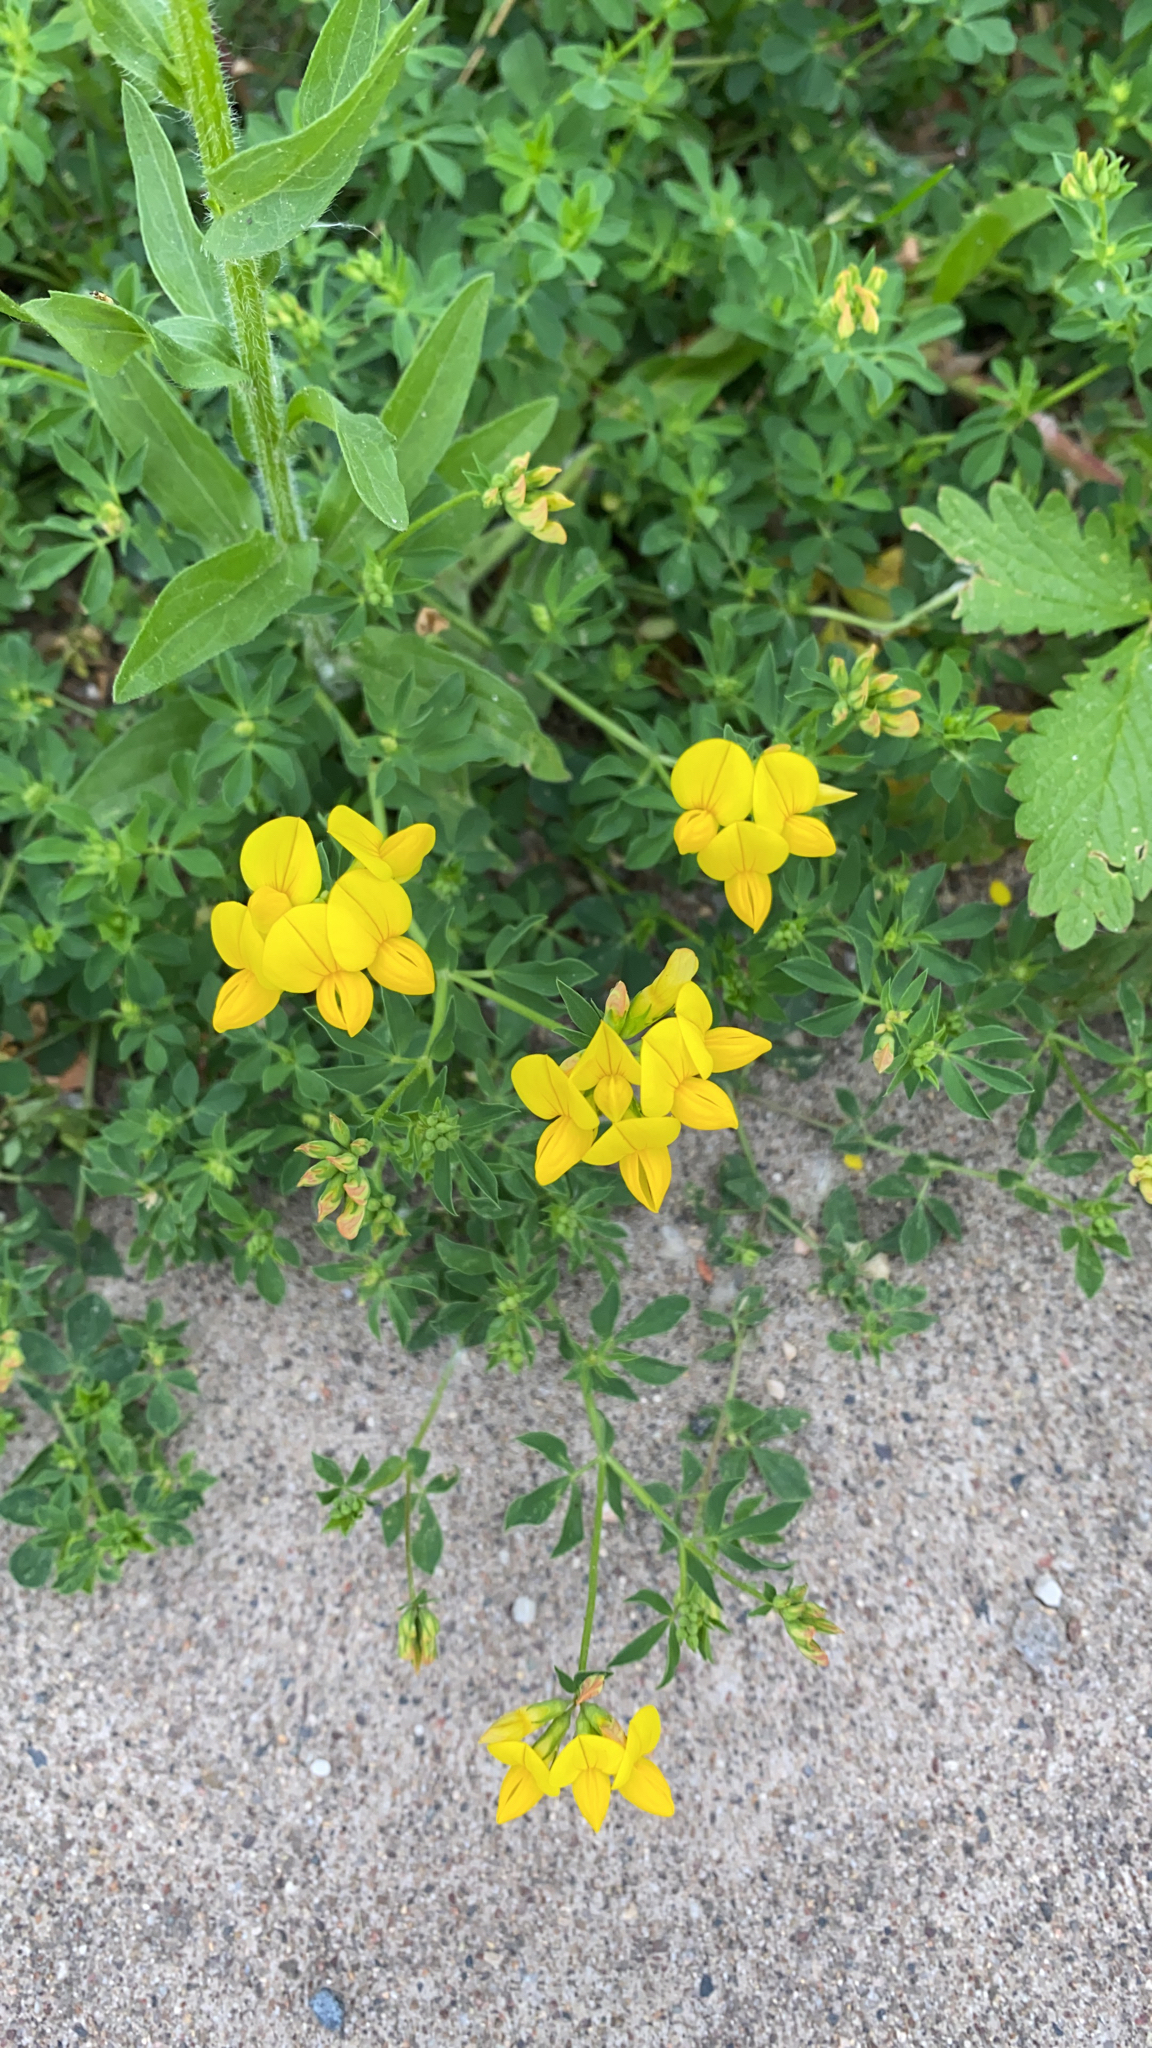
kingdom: Plantae
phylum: Tracheophyta
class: Magnoliopsida
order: Fabales
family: Fabaceae
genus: Lotus
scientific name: Lotus corniculatus
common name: Common bird's-foot-trefoil
